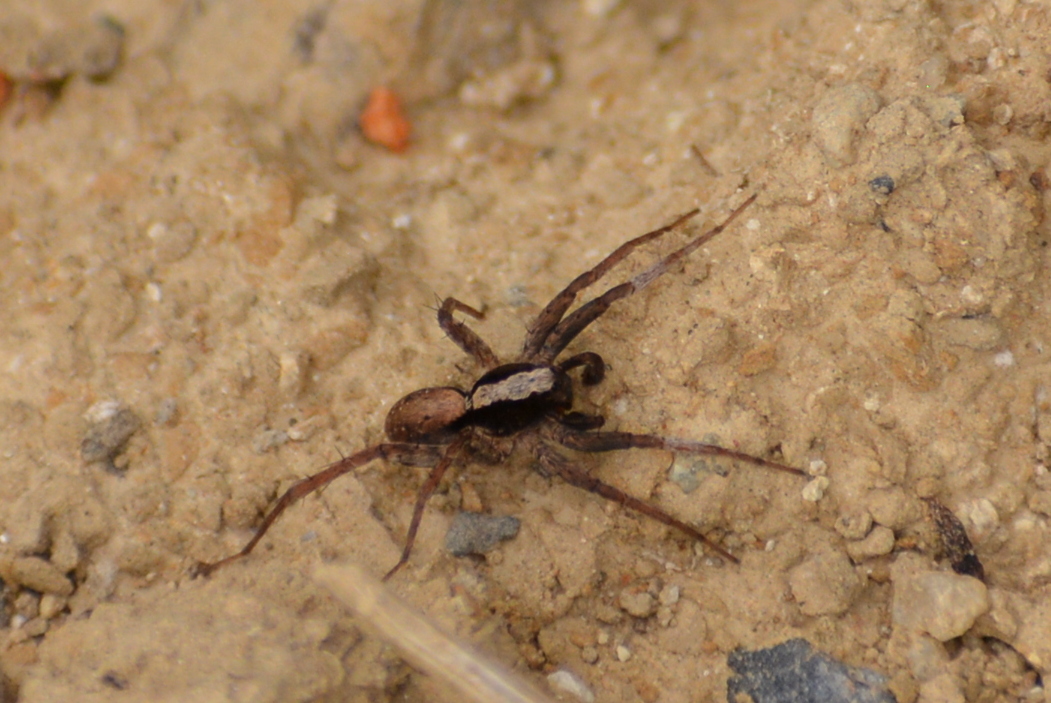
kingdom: Animalia
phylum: Arthropoda
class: Arachnida
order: Araneae
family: Lycosidae
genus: Xerolycosa
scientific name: Xerolycosa nemoralis
